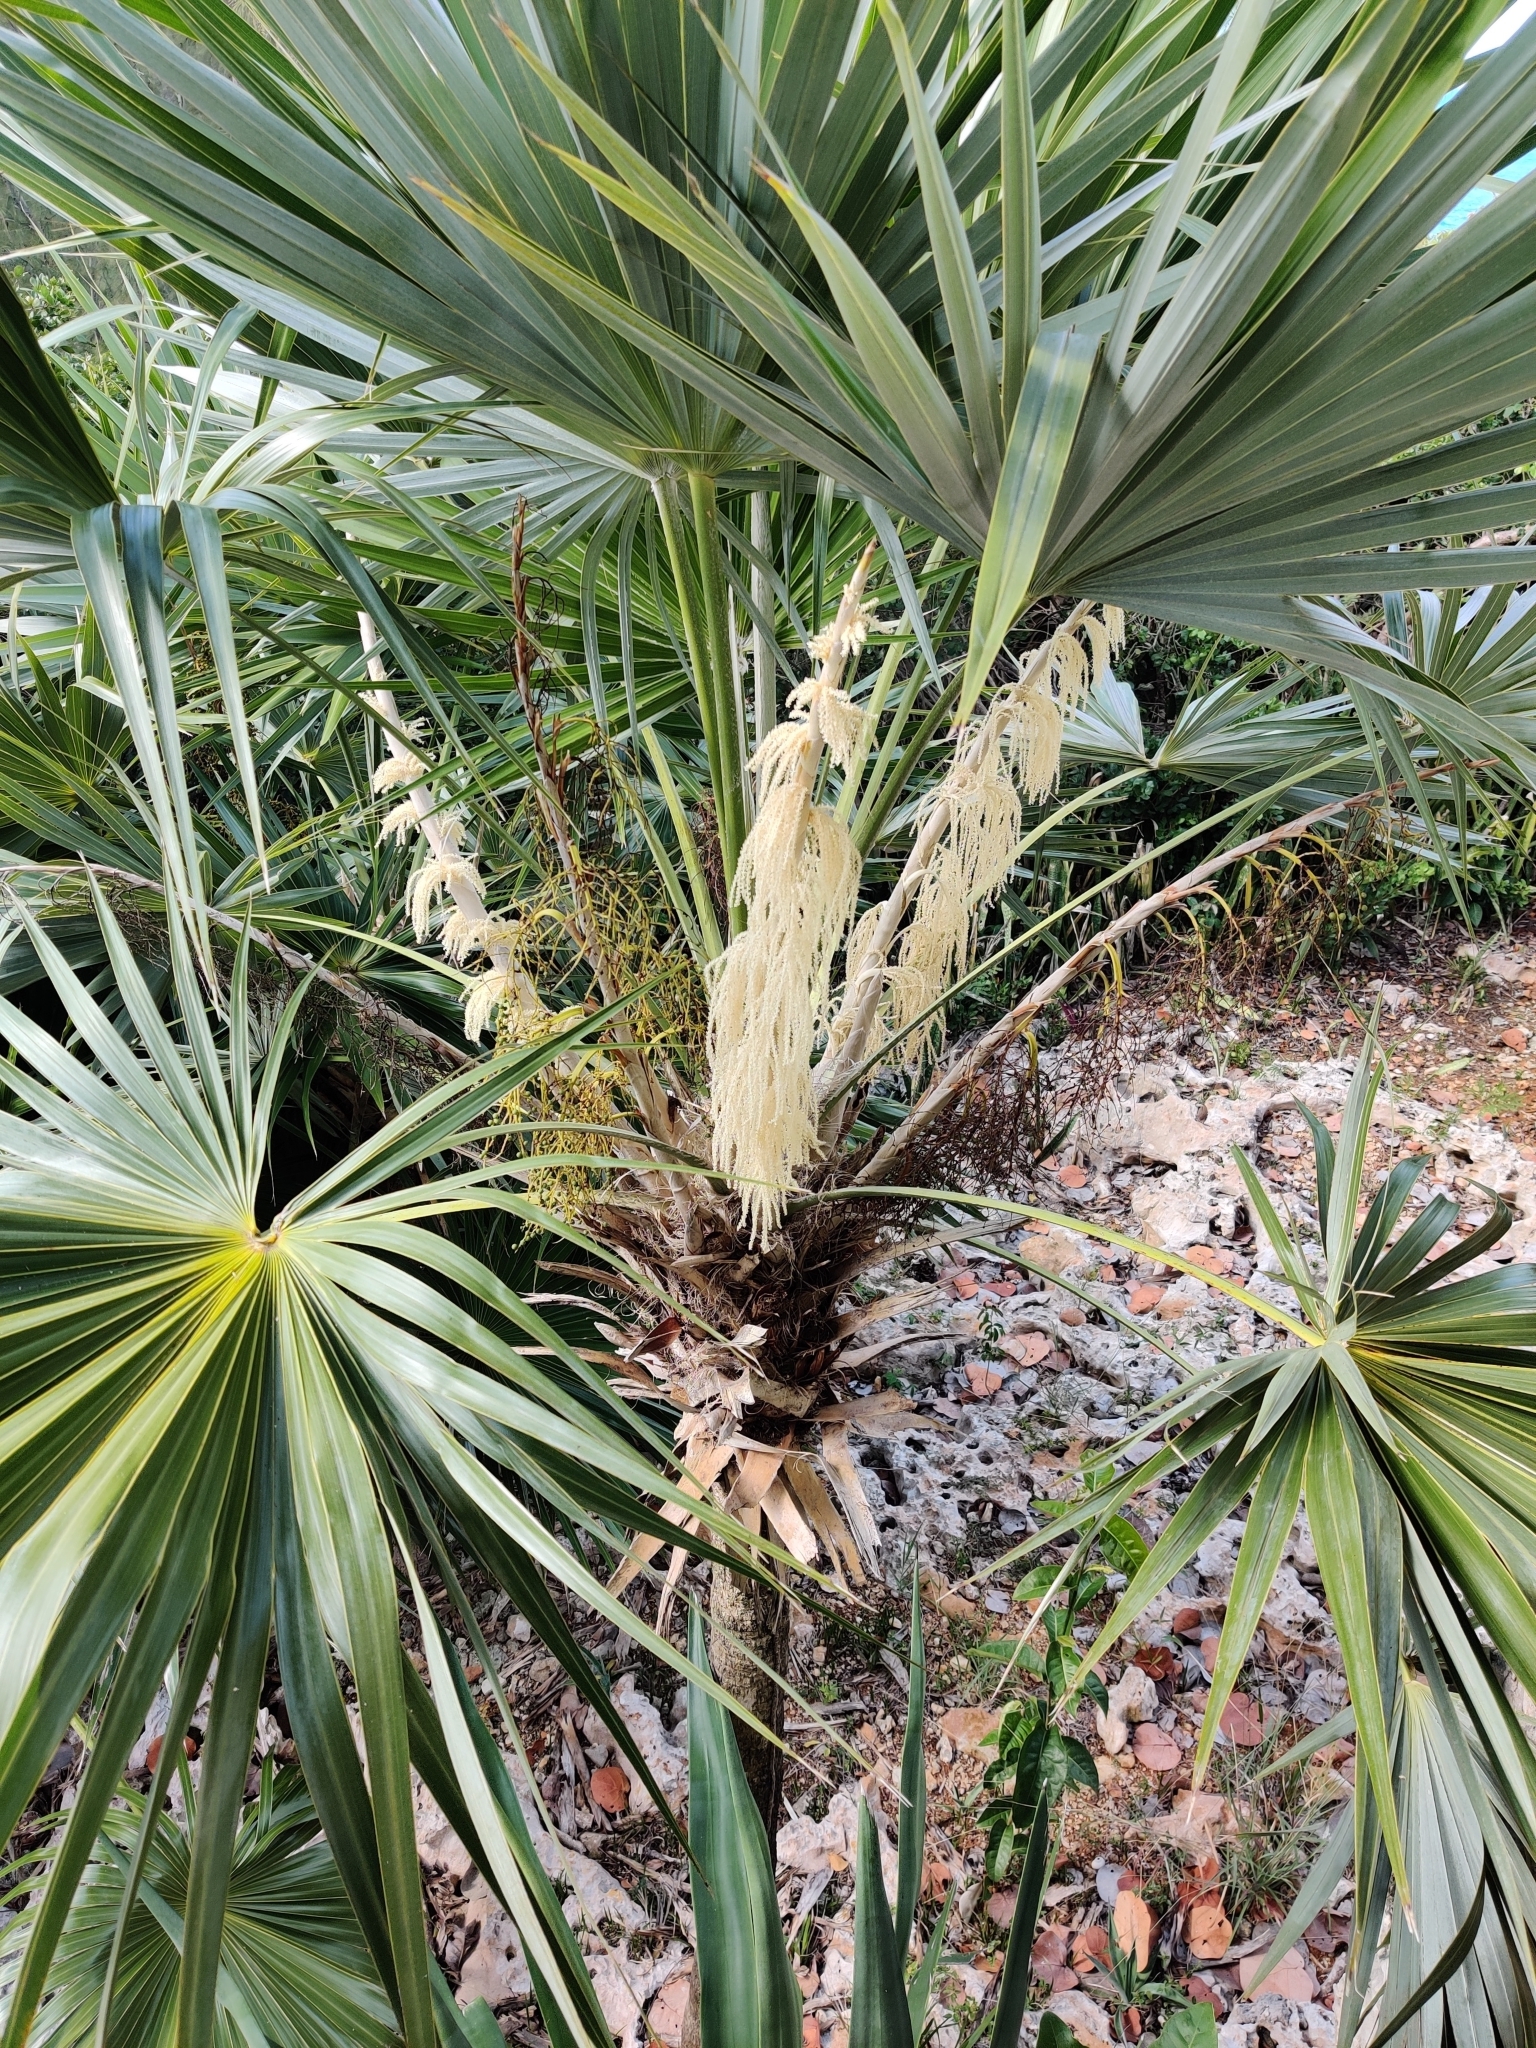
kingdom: Plantae
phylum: Tracheophyta
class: Liliopsida
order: Arecales
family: Arecaceae
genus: Leucothrinax
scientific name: Leucothrinax morrisii
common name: Key palm
